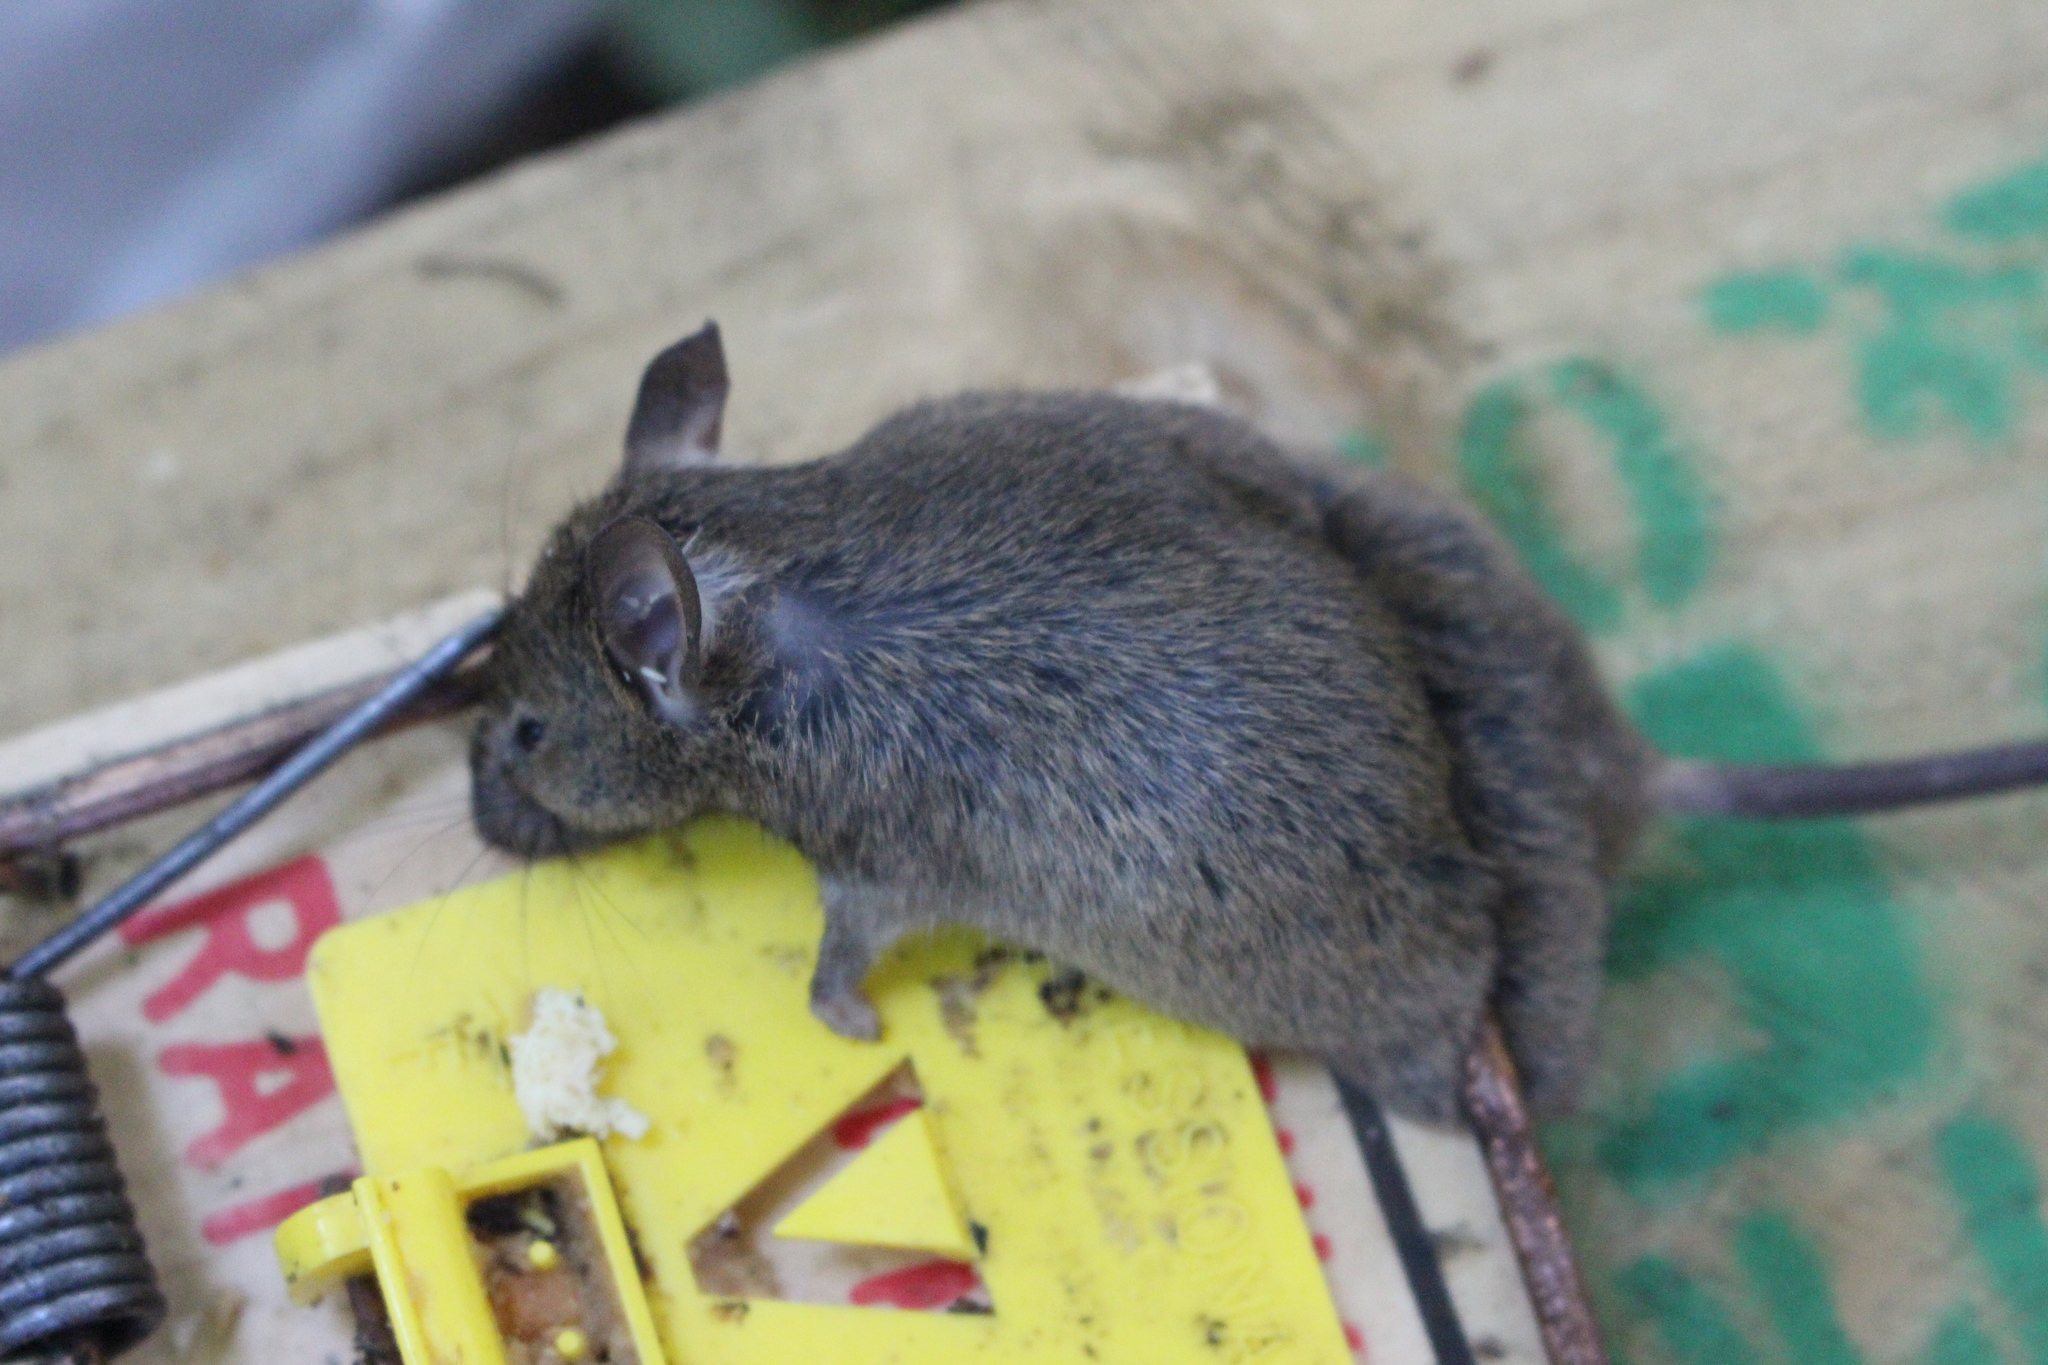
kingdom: Animalia
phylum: Chordata
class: Mammalia
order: Rodentia
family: Muridae
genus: Mus
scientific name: Mus musculus
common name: House mouse
